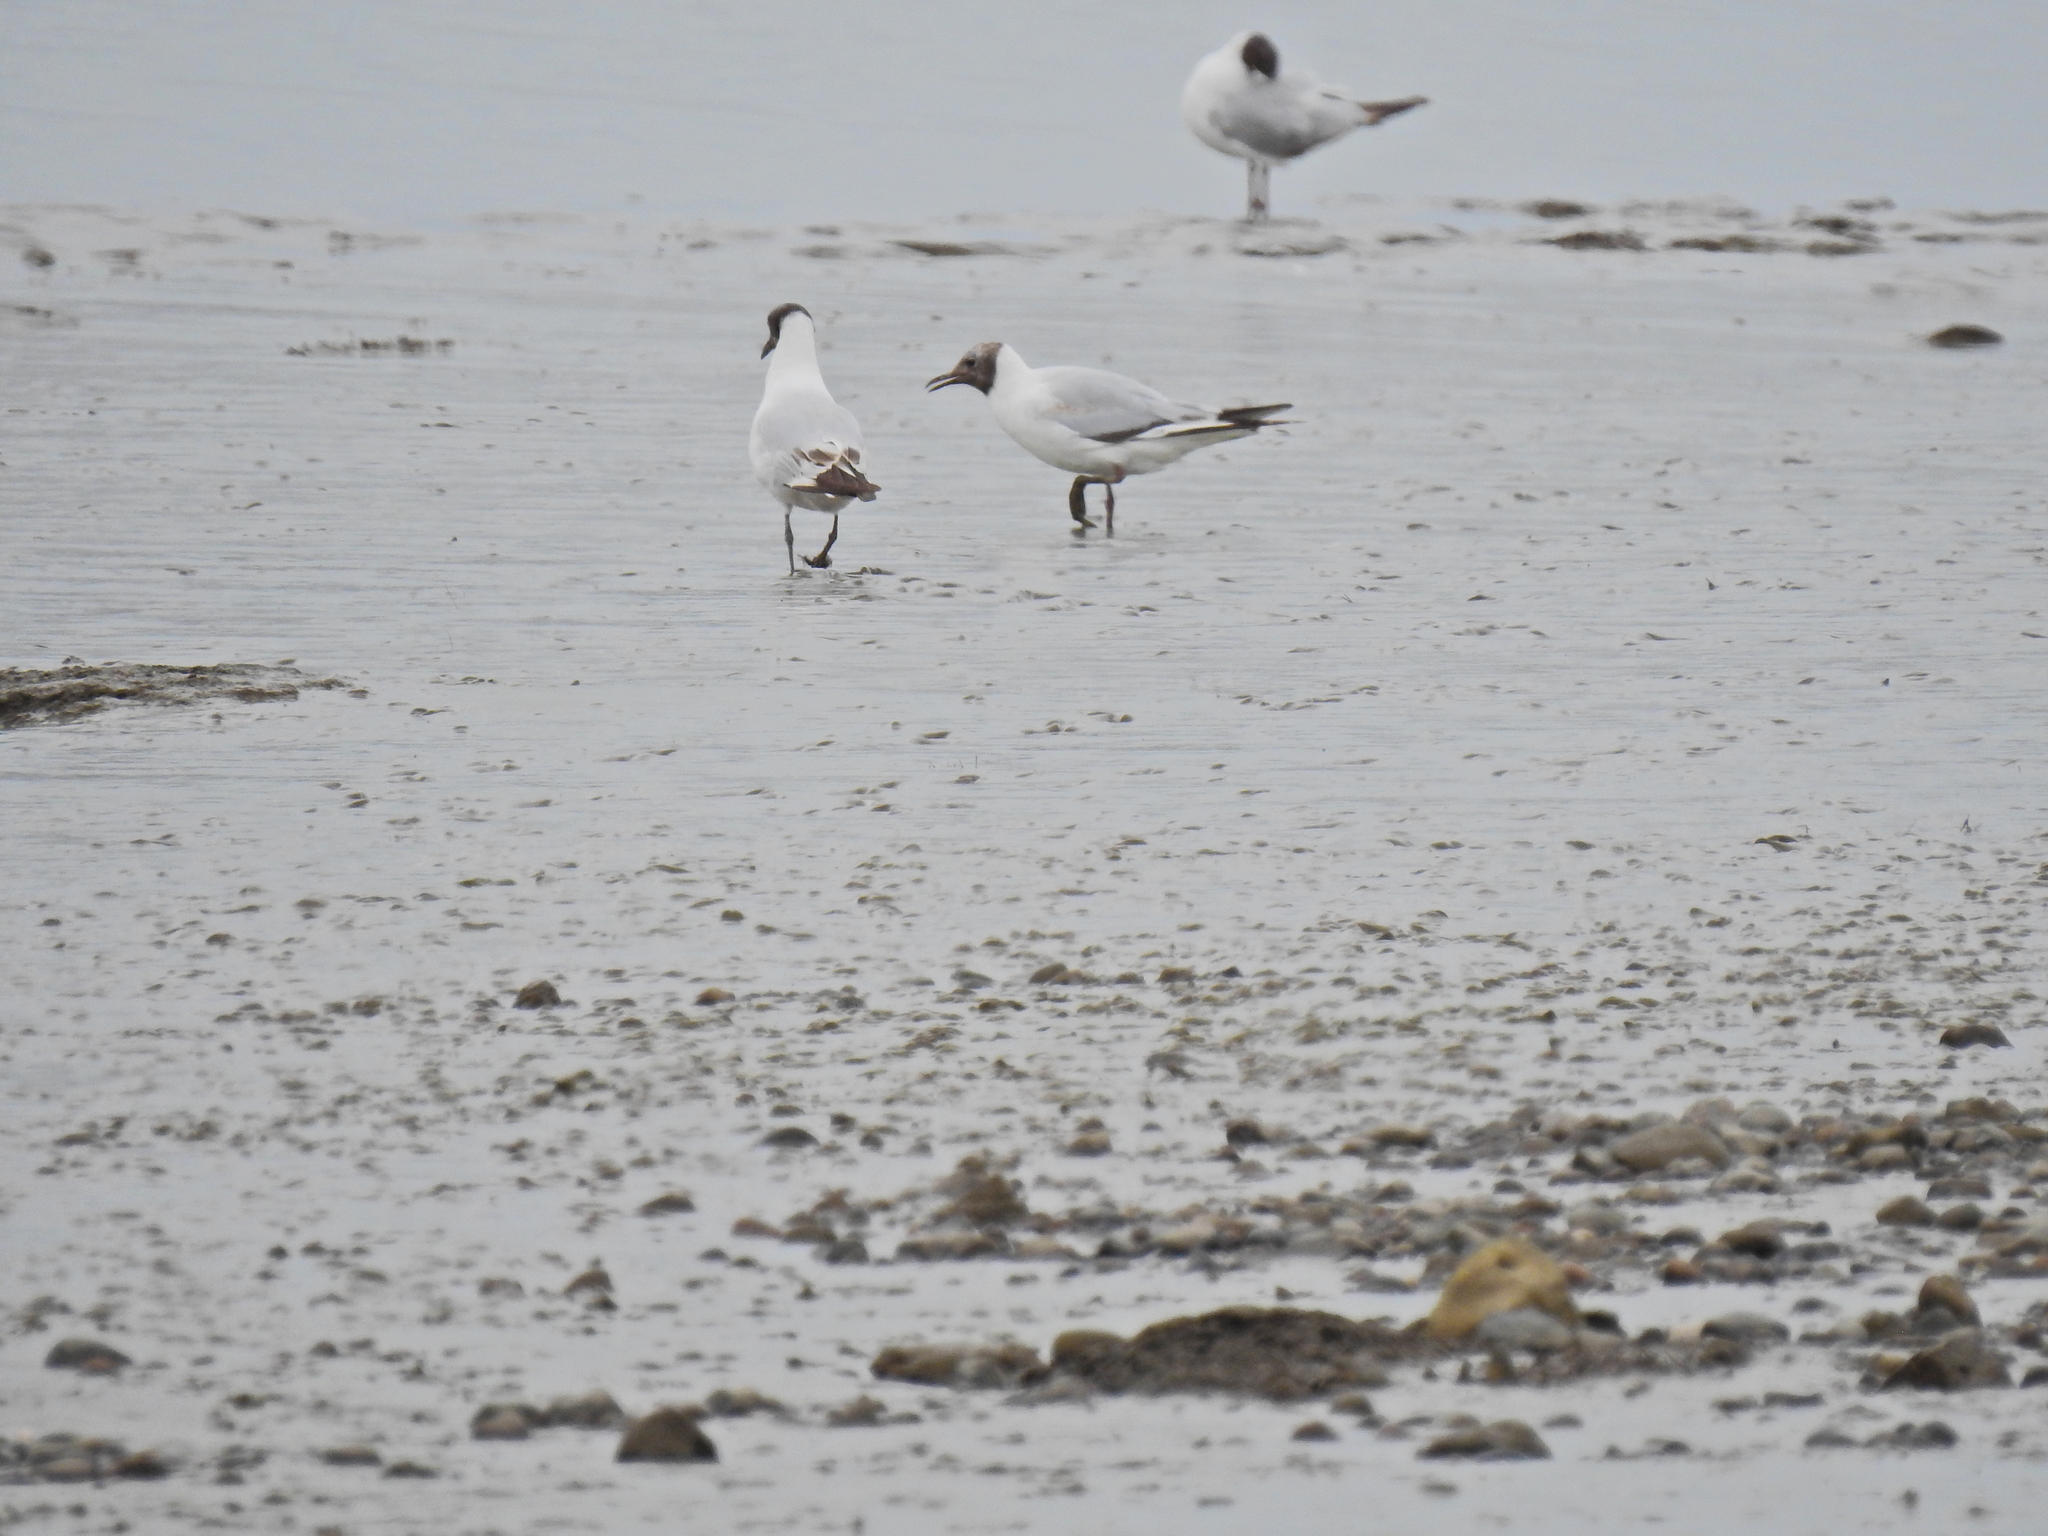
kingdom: Animalia
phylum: Chordata
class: Aves
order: Charadriiformes
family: Laridae
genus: Chroicocephalus
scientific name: Chroicocephalus ridibundus
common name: Black-headed gull
